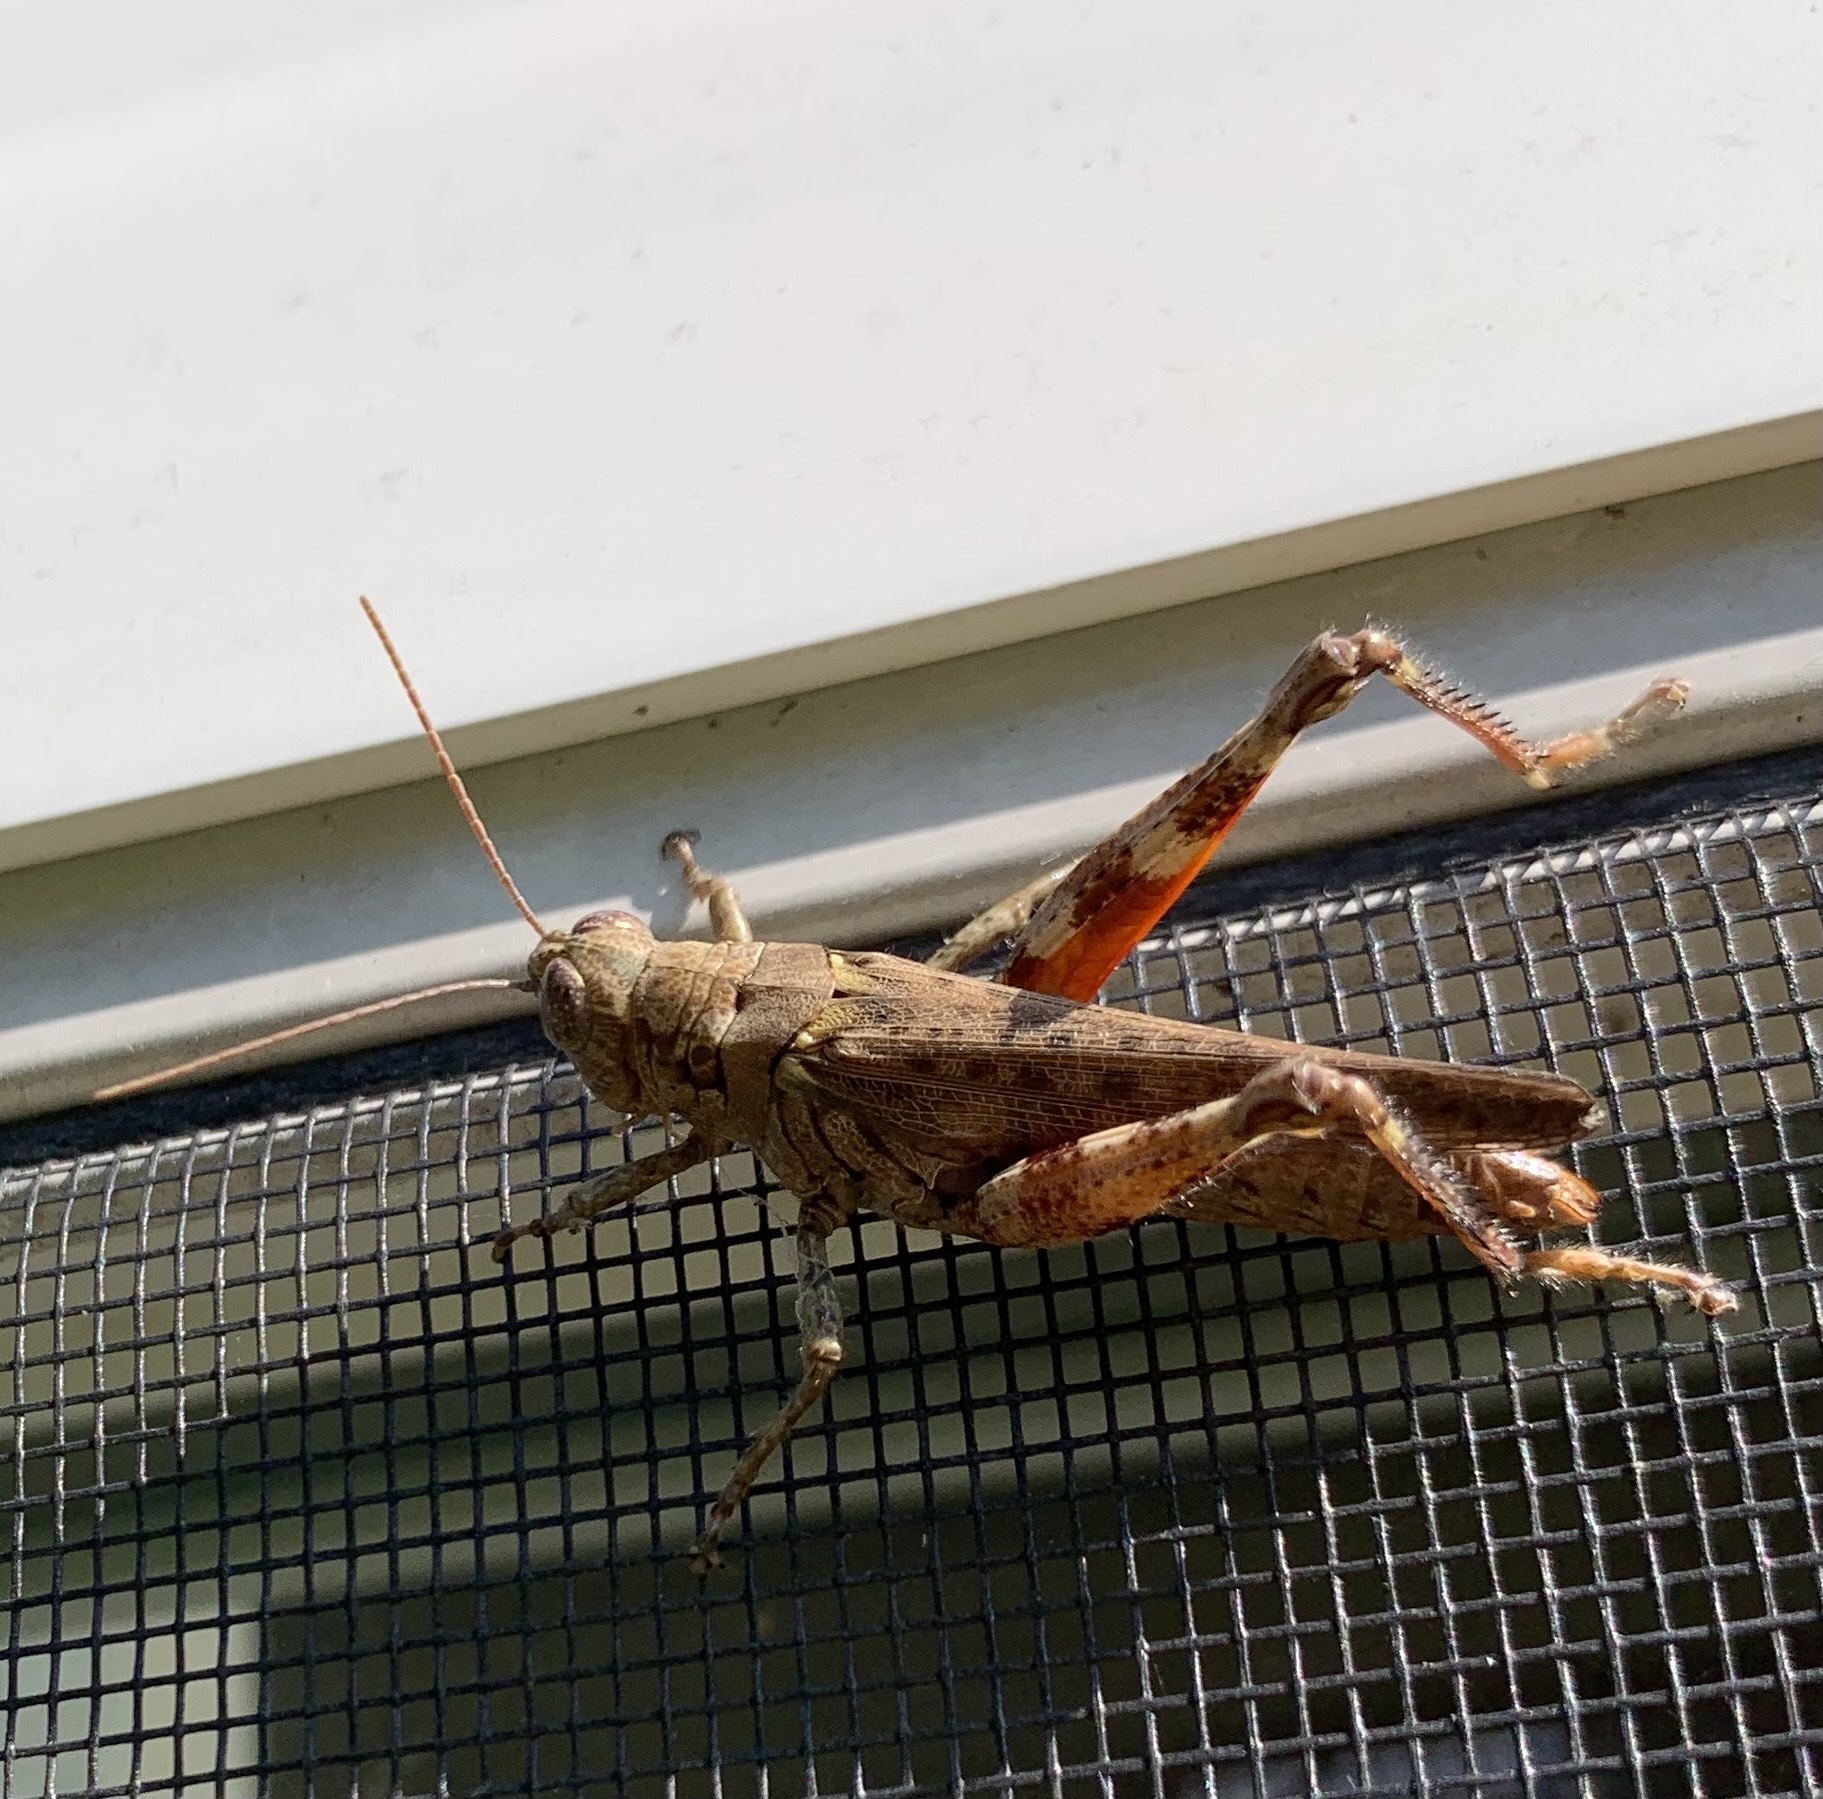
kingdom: Animalia
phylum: Arthropoda
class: Insecta
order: Orthoptera
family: Acrididae
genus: Melanoplus
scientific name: Melanoplus punctulatus
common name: Pine-tree spur-throat grasshopper
